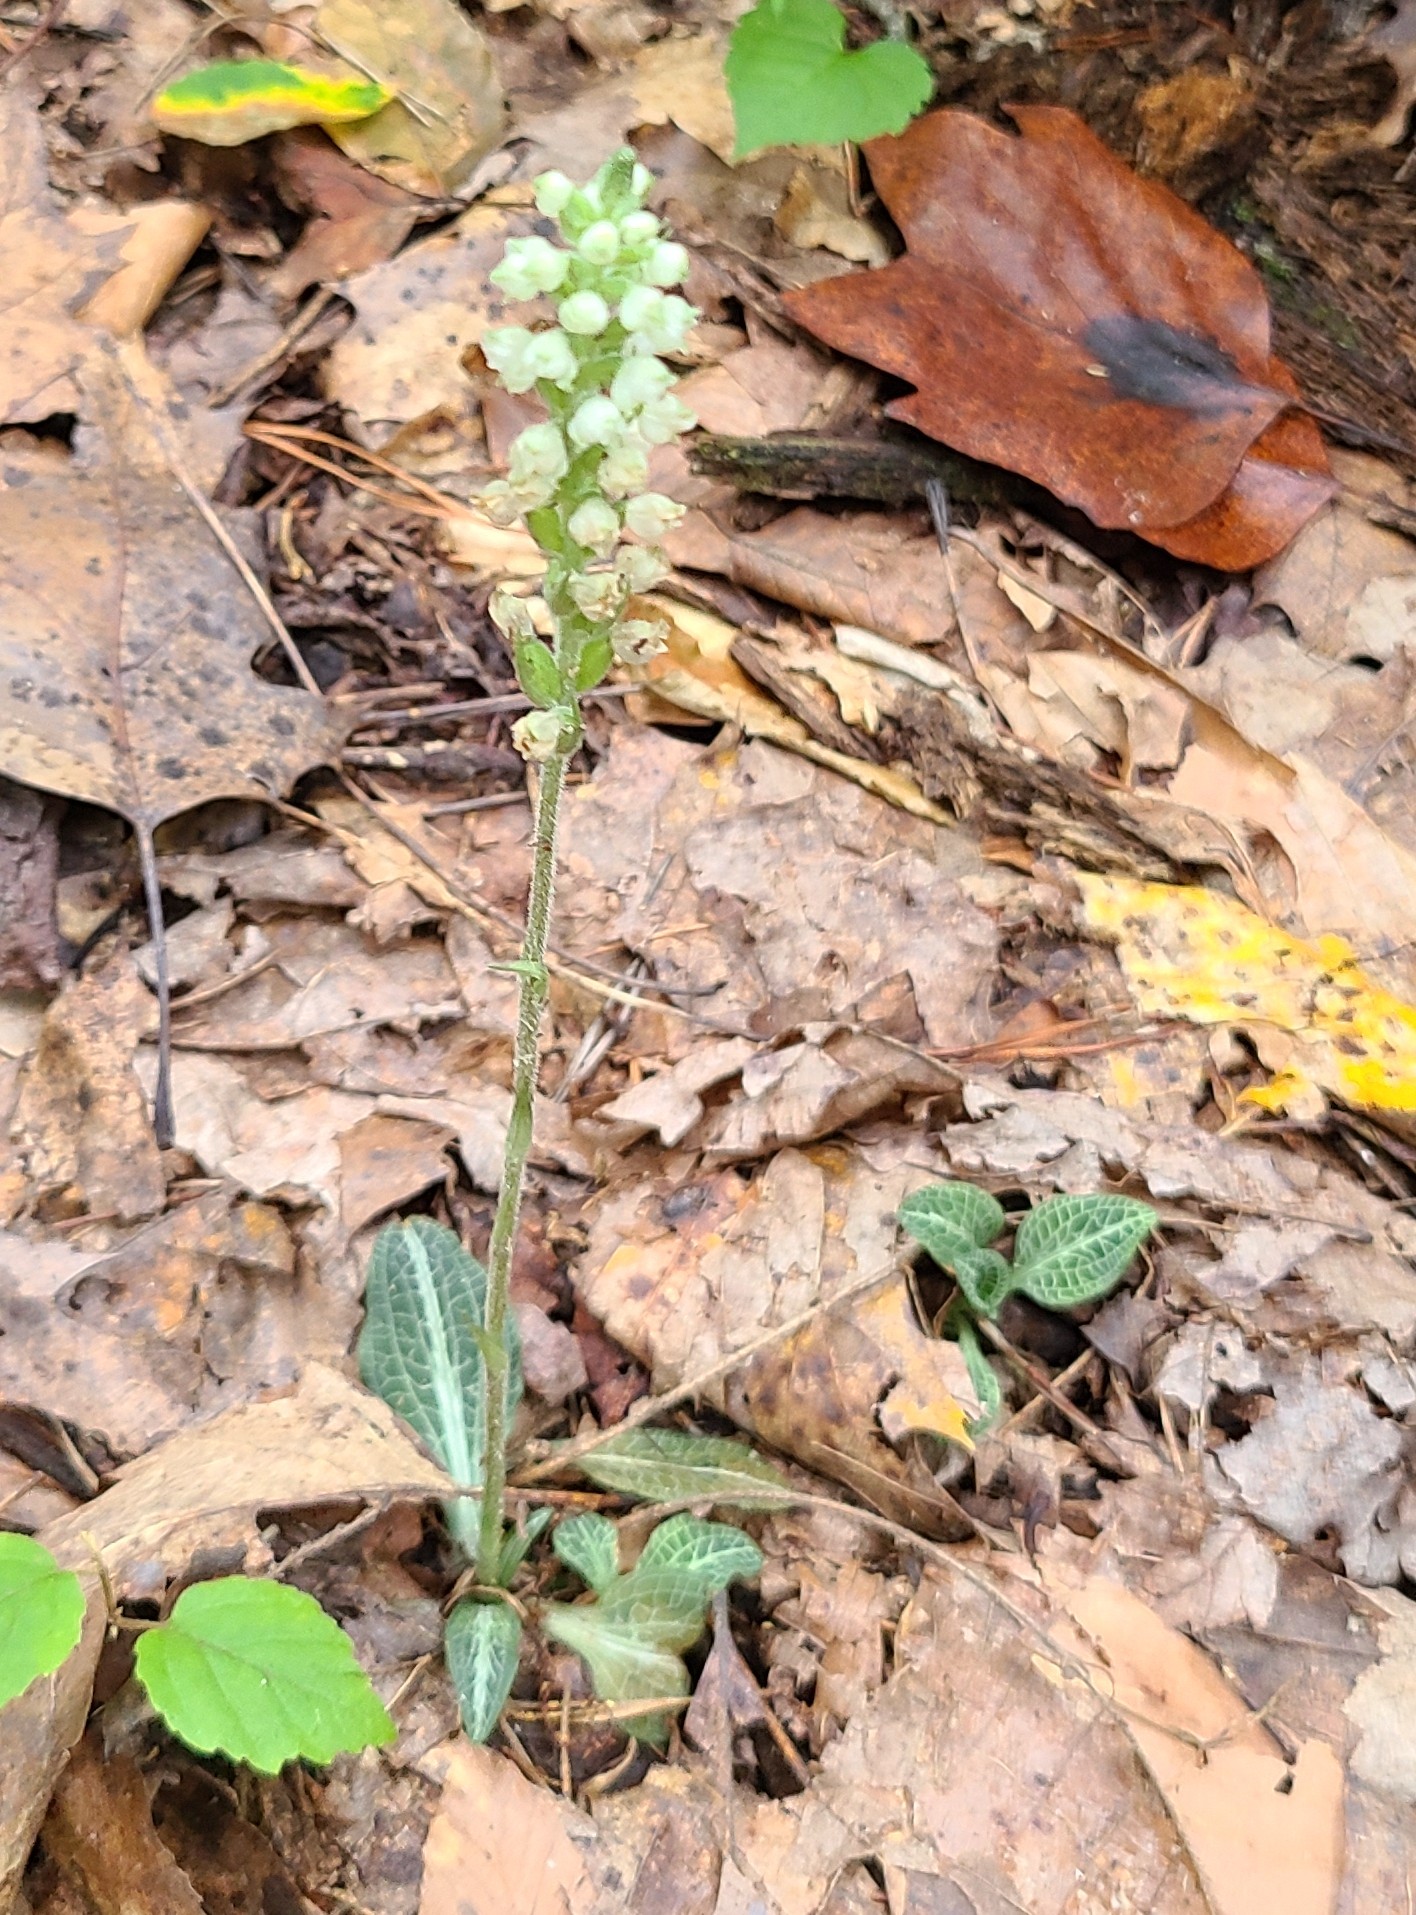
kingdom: Plantae
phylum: Tracheophyta
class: Liliopsida
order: Asparagales
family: Orchidaceae
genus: Goodyera
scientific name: Goodyera pubescens
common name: Downy rattlesnake-plantain
